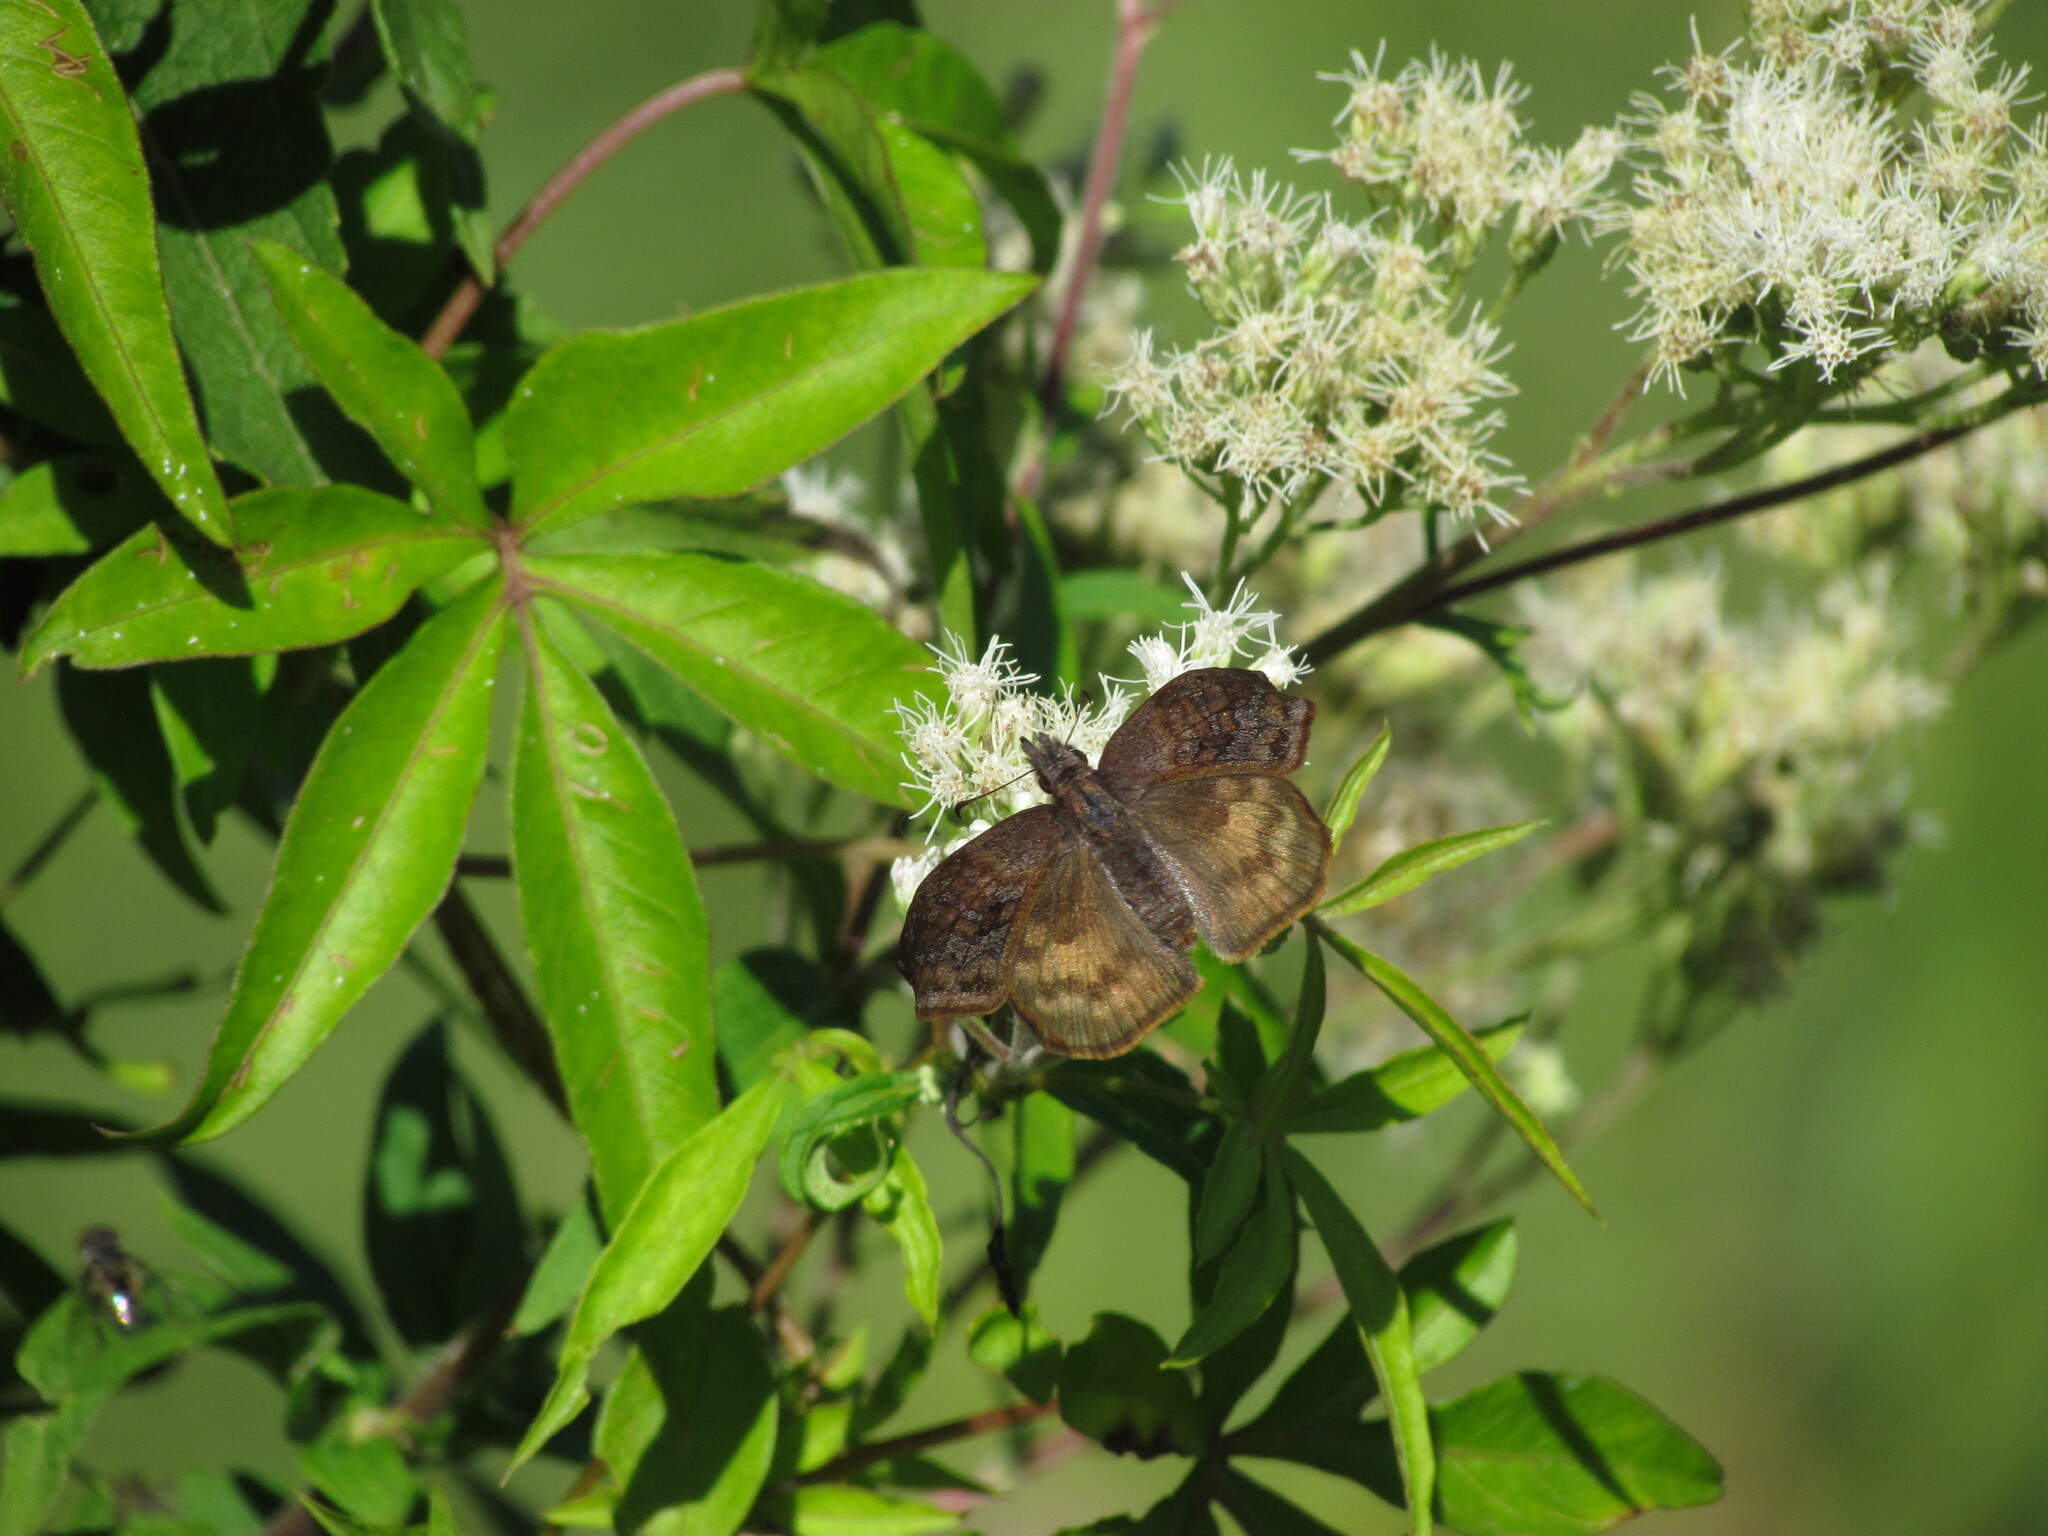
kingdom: Animalia
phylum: Arthropoda
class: Insecta
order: Lepidoptera
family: Hesperiidae
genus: Theagenes
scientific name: Theagenes dichrous
